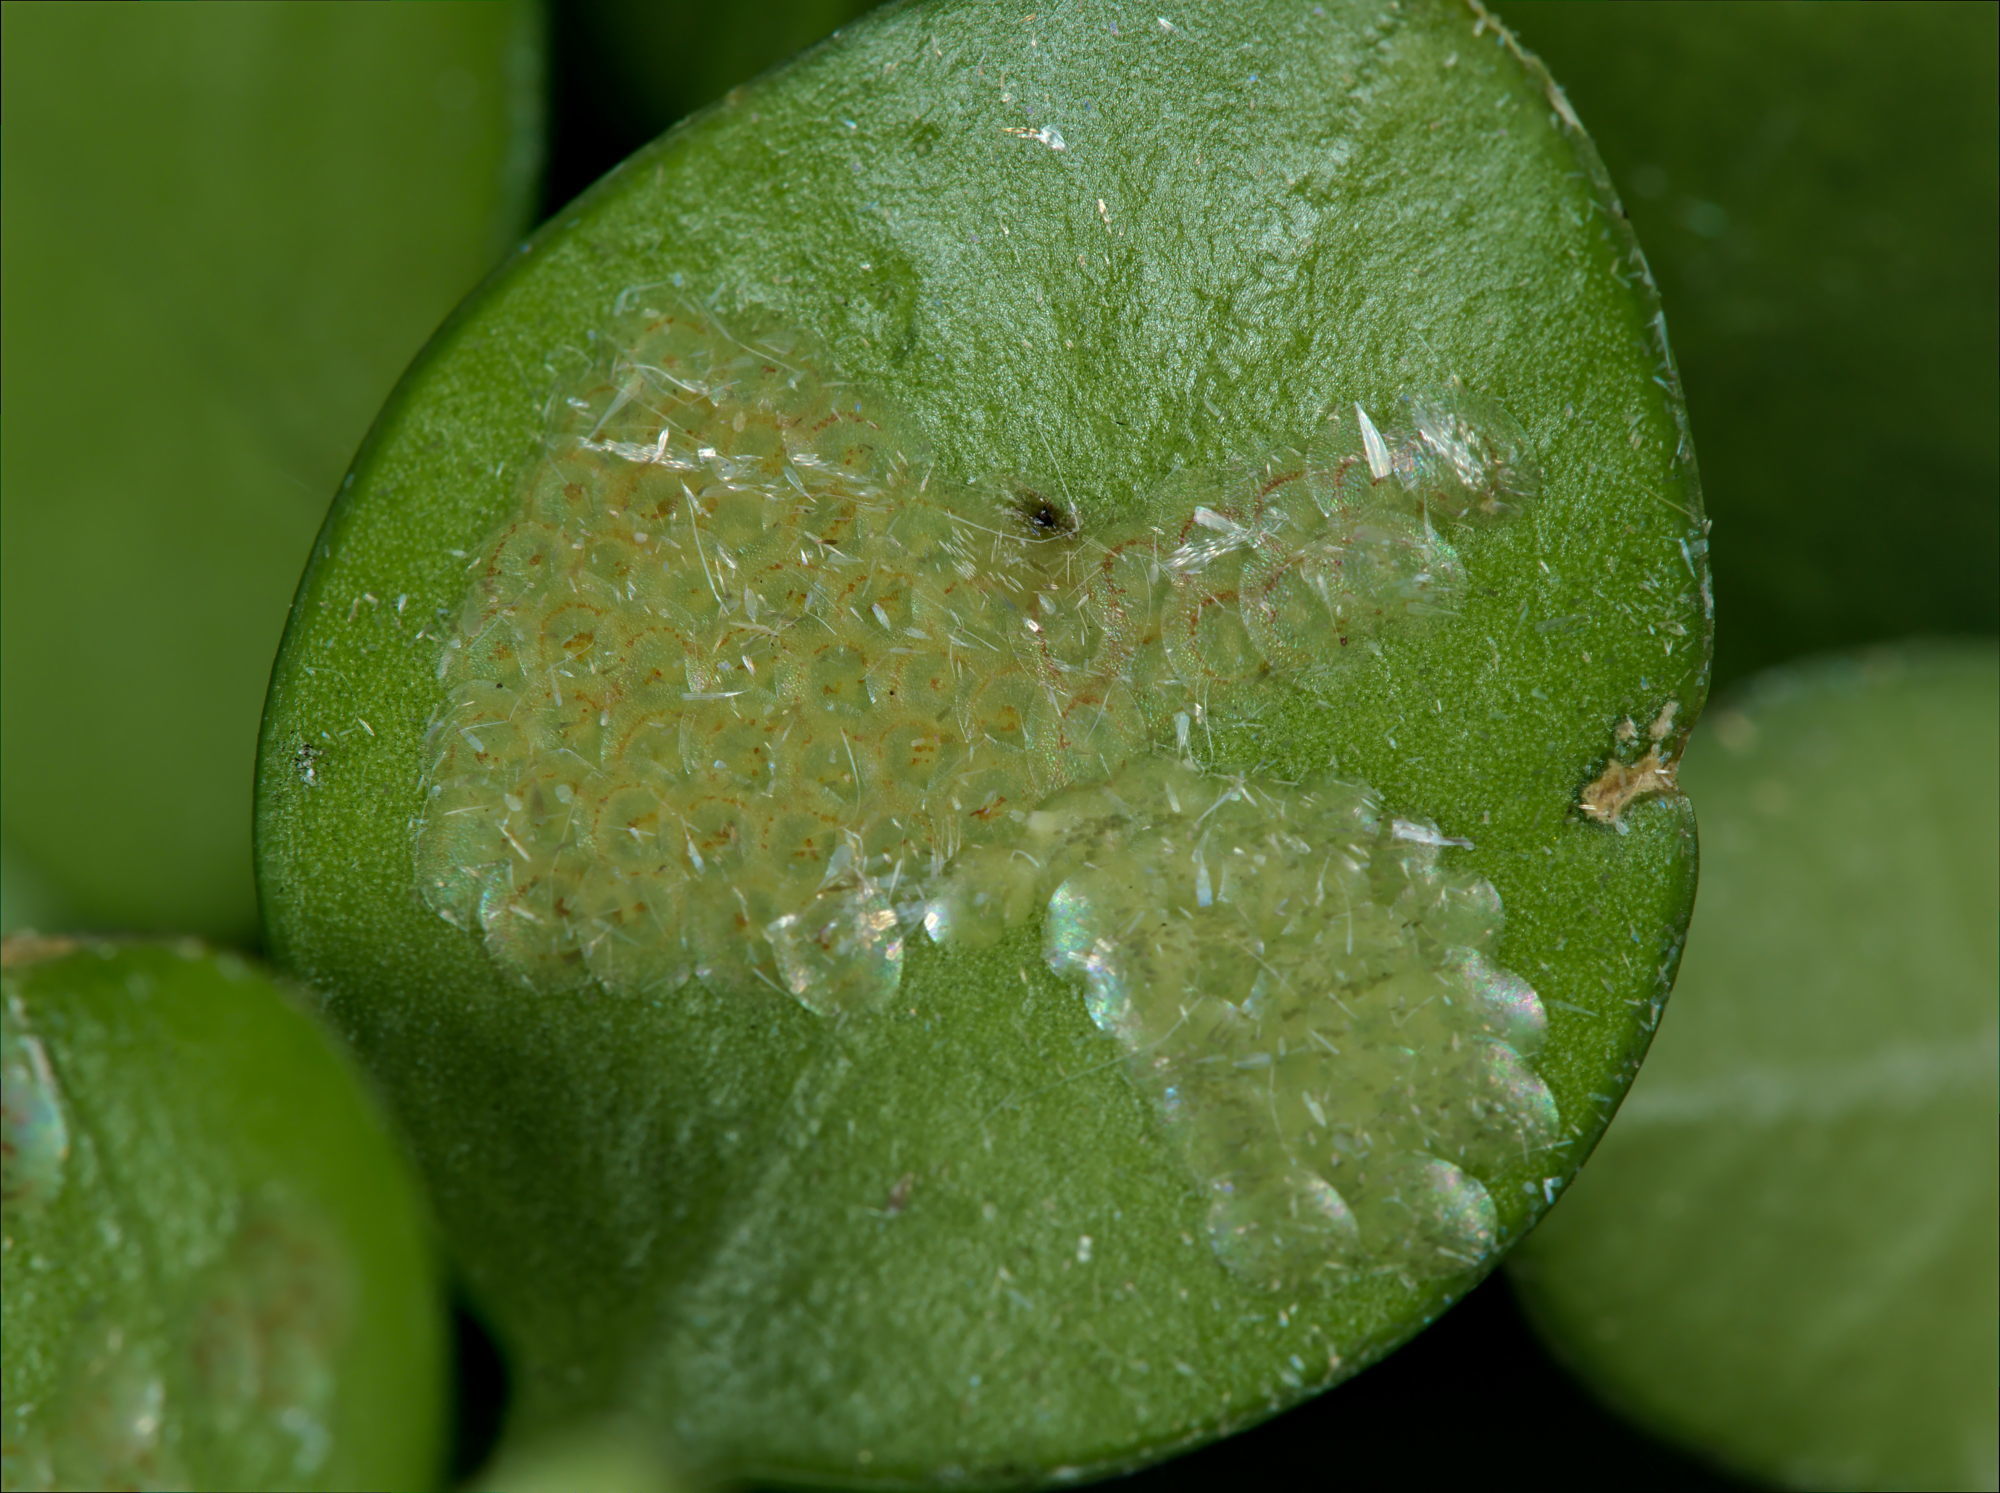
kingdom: Animalia
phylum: Arthropoda
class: Insecta
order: Lepidoptera
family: Crambidae
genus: Cydalima
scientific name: Cydalima perspectalis
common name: Box tree moth
